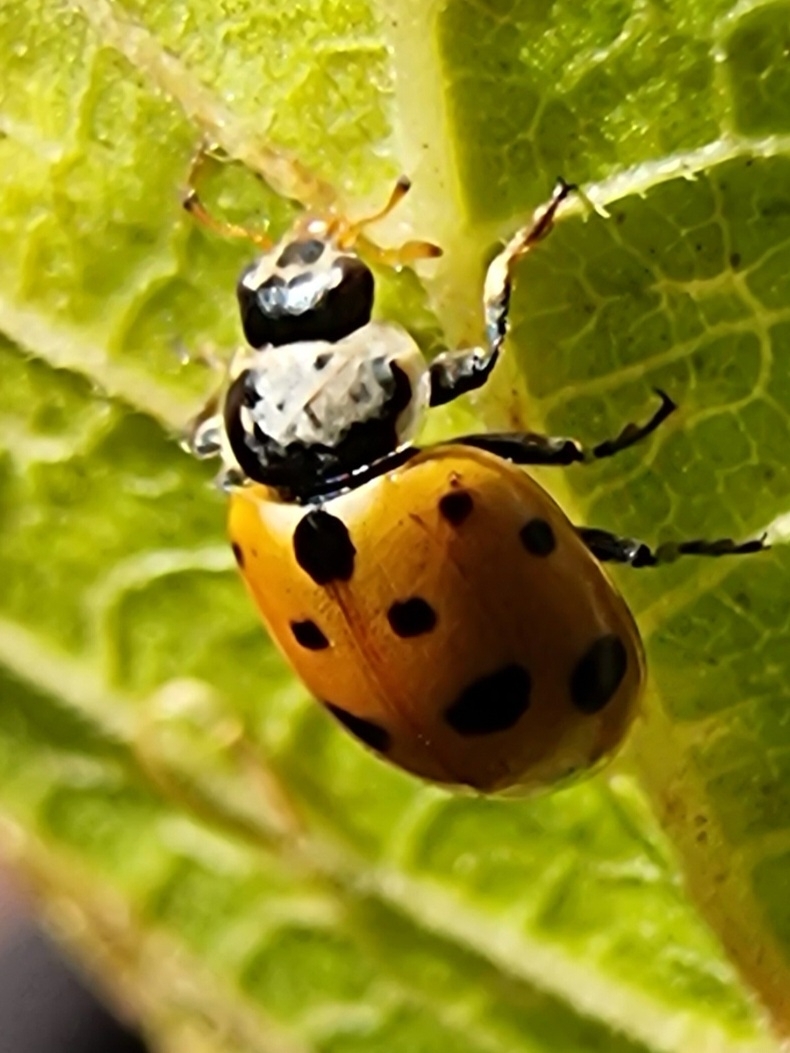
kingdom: Animalia
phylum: Arthropoda
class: Insecta
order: Coleoptera
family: Coccinellidae
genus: Hippodamia
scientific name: Hippodamia variegata
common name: Ladybird beetle
